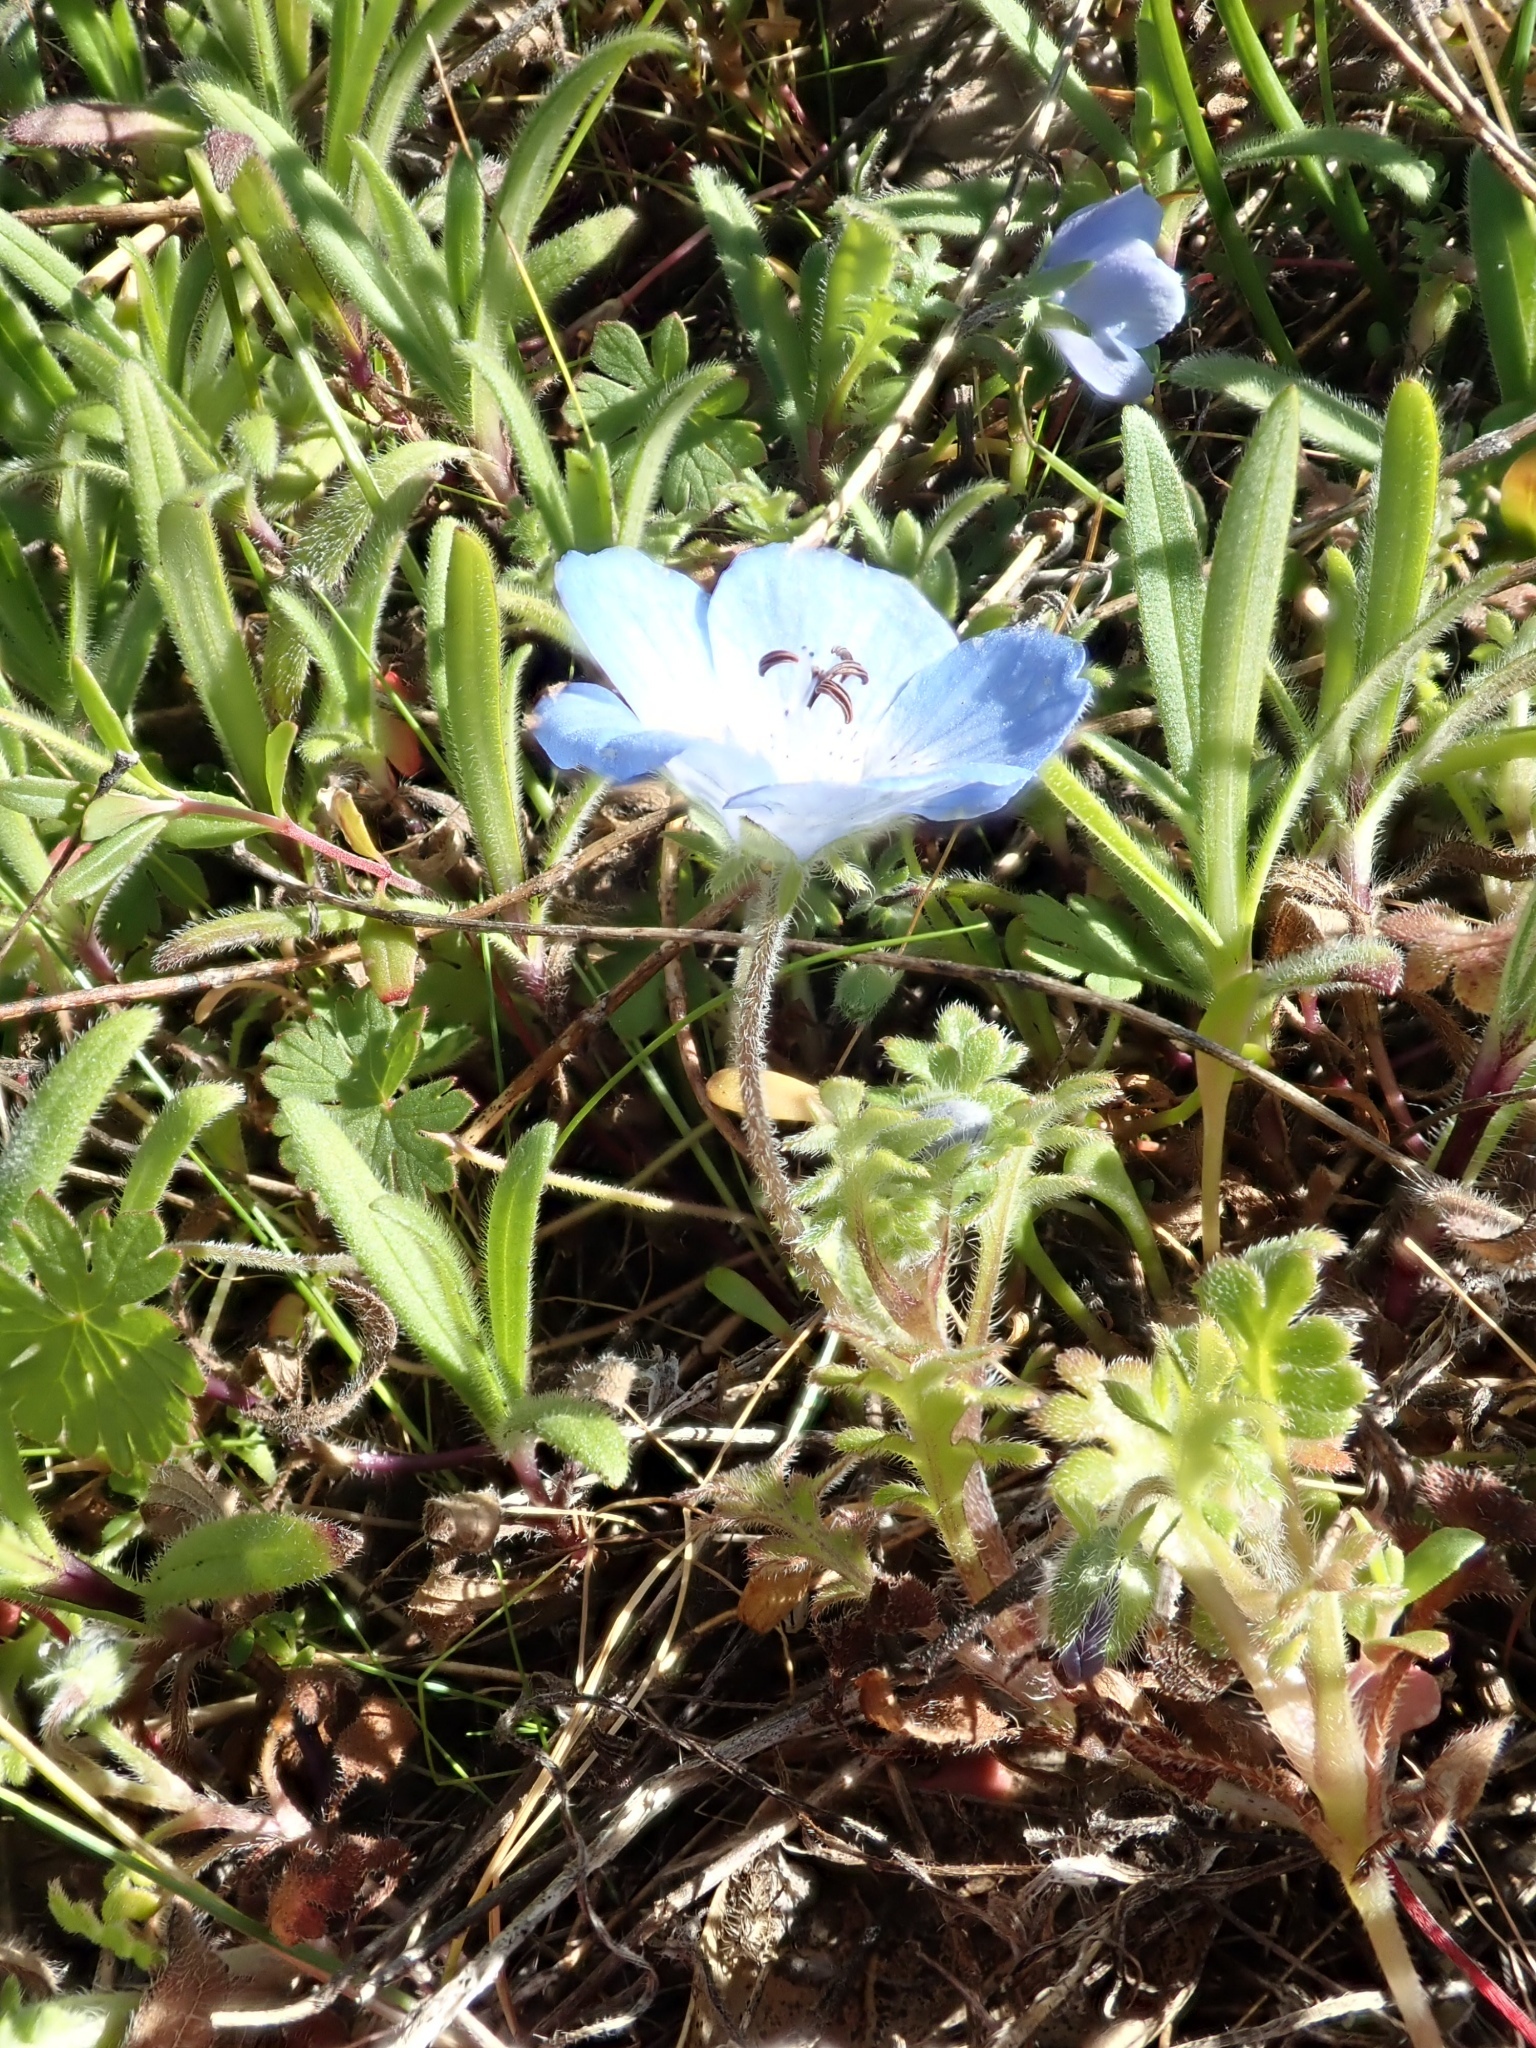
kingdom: Plantae
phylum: Tracheophyta
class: Magnoliopsida
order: Boraginales
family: Hydrophyllaceae
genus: Nemophila
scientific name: Nemophila menziesii
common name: Baby's-blue-eyes
